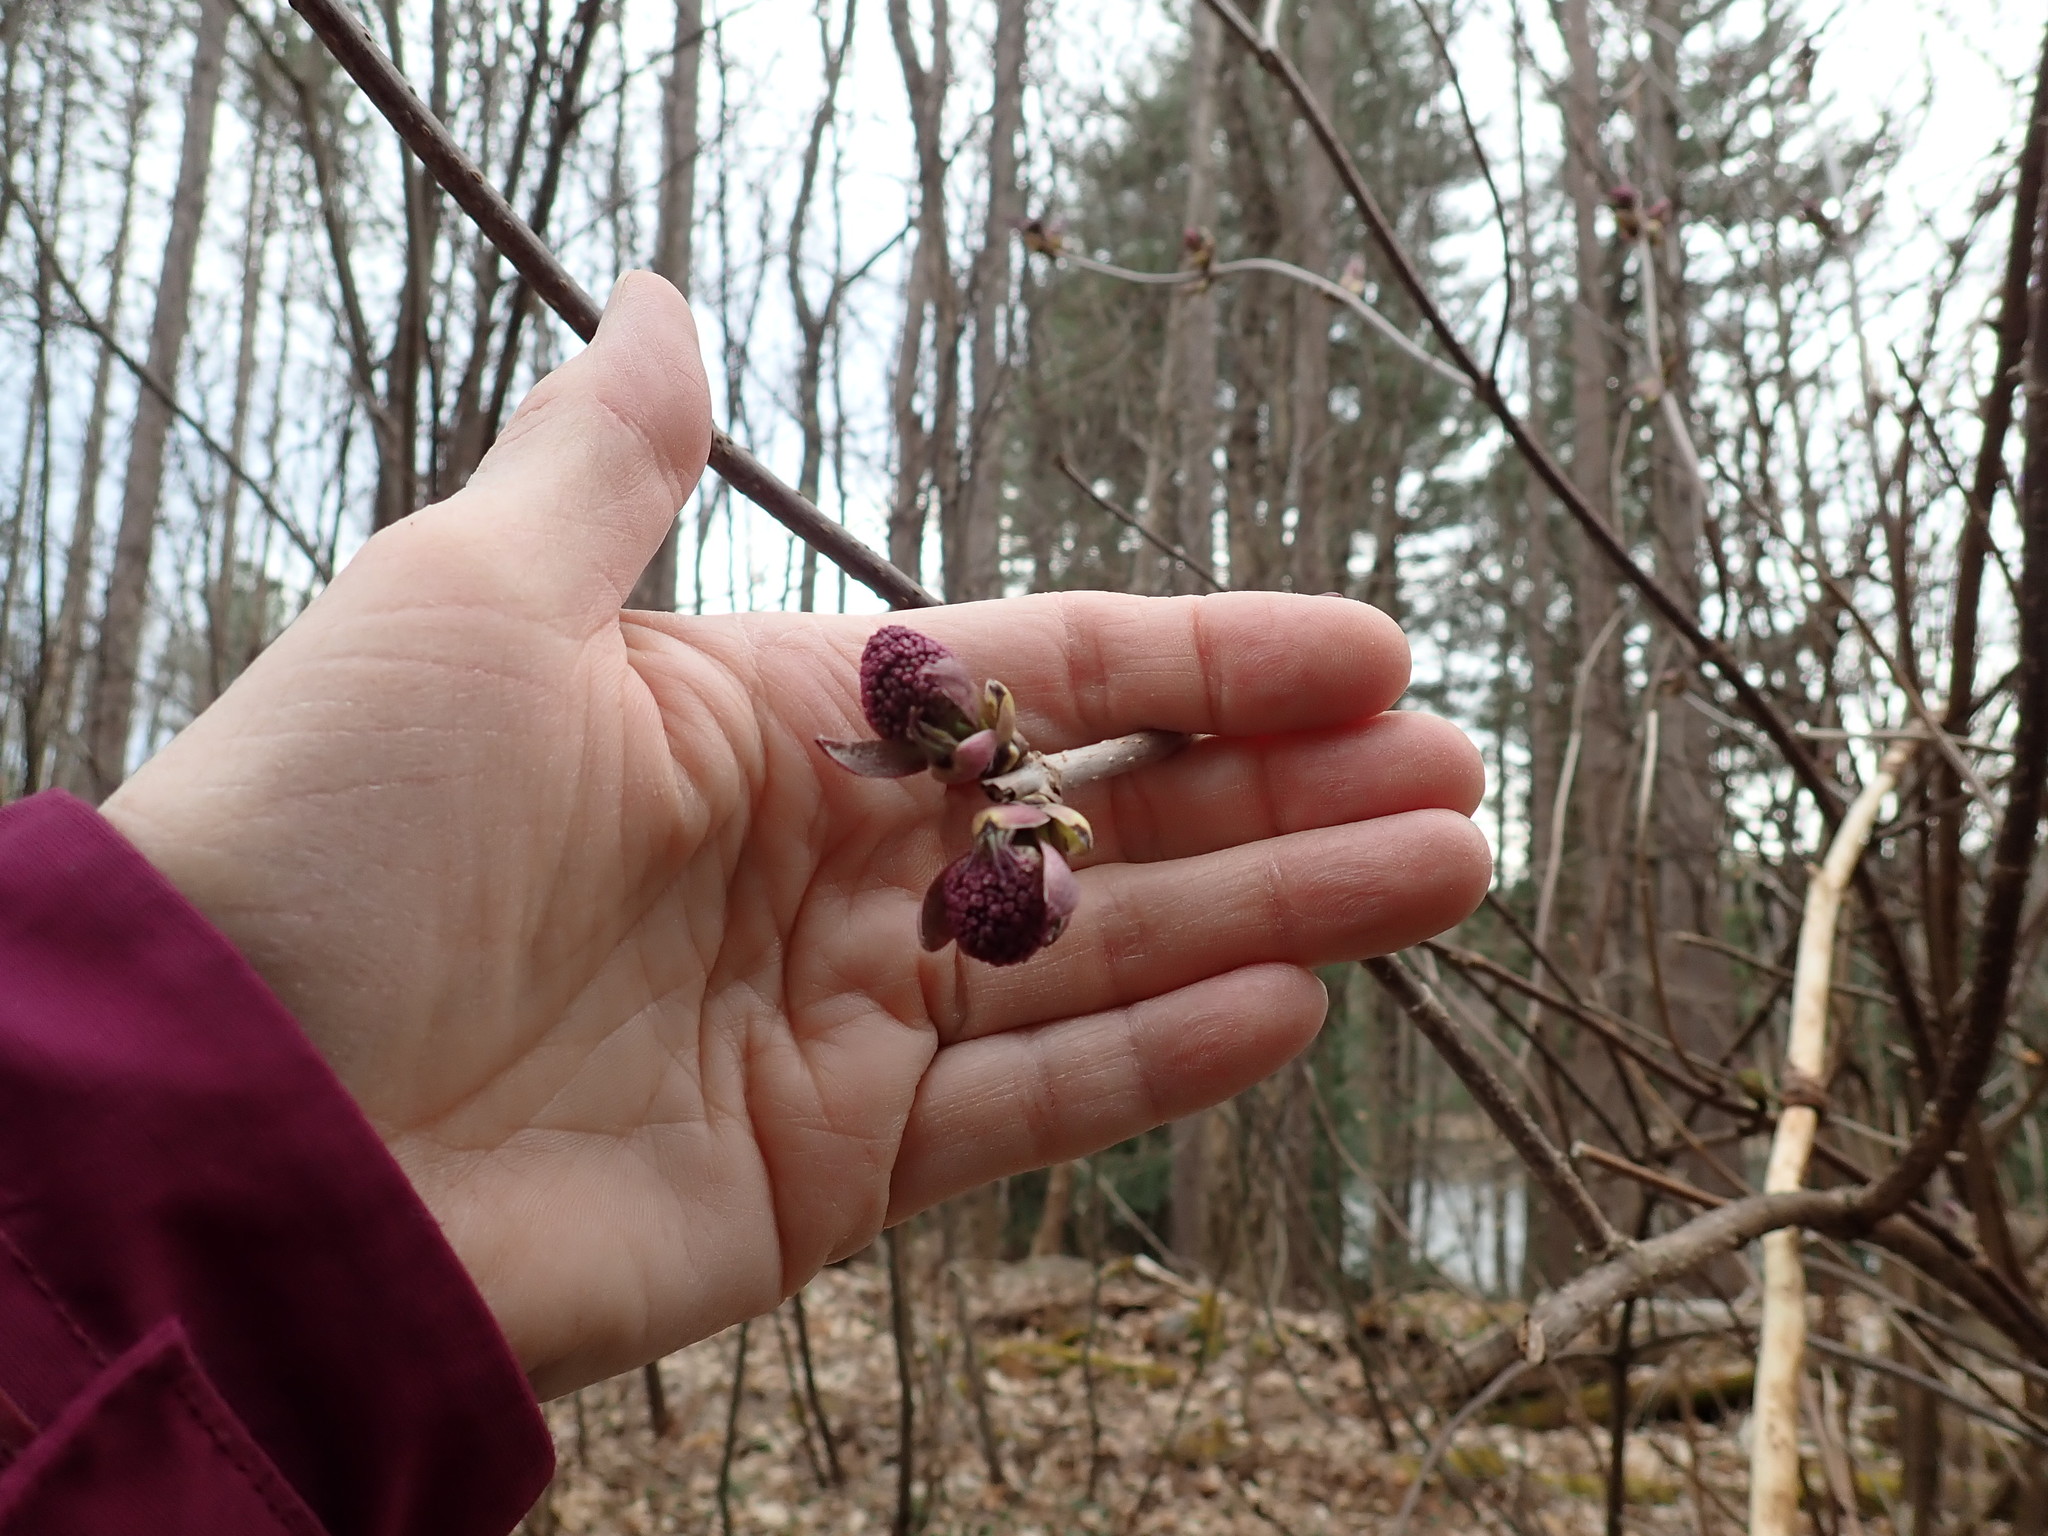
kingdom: Plantae
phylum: Tracheophyta
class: Magnoliopsida
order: Dipsacales
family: Viburnaceae
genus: Sambucus
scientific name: Sambucus racemosa
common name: Red-berried elder
